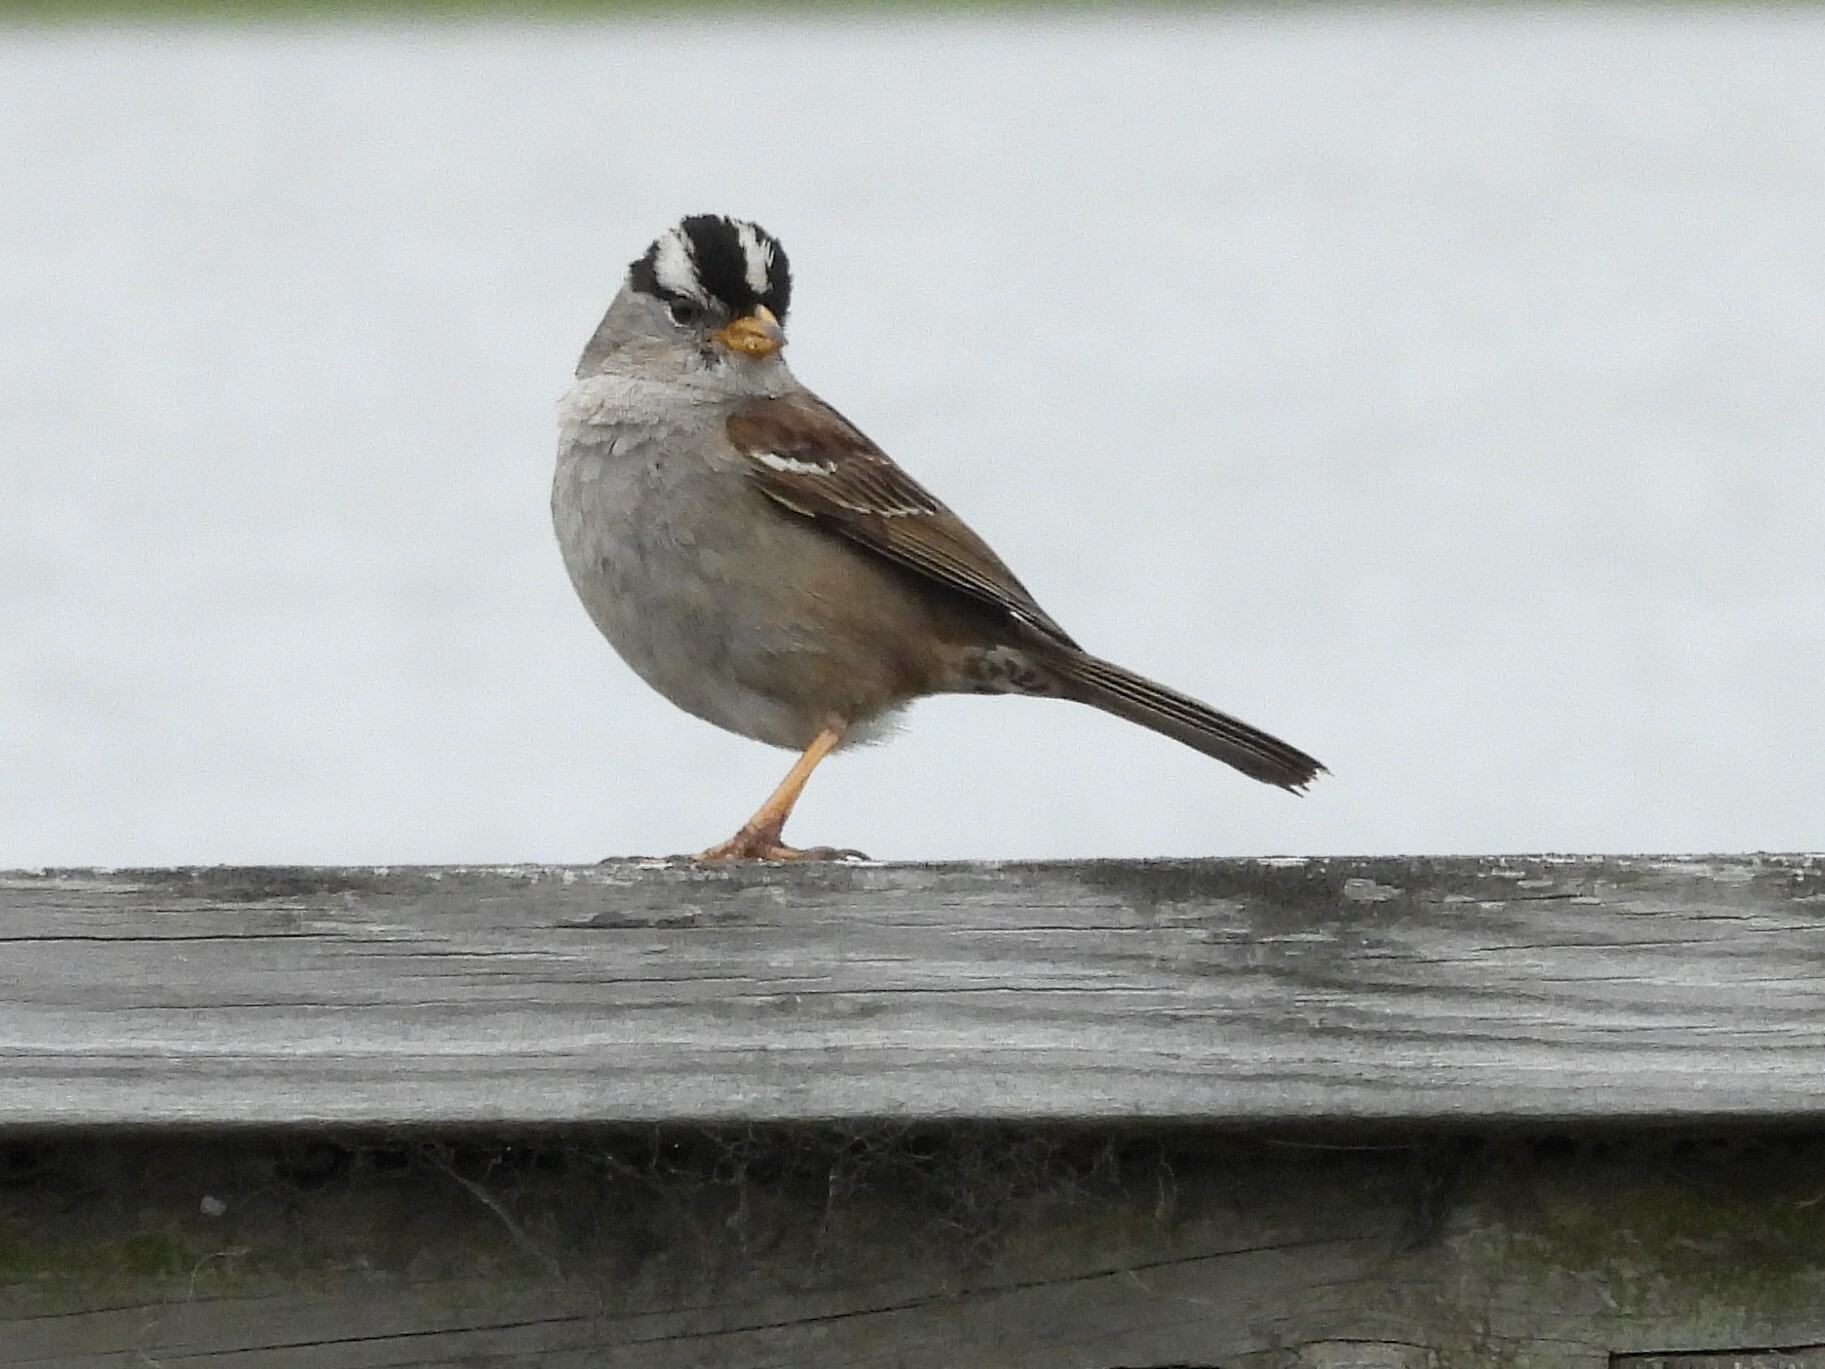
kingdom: Animalia
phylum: Chordata
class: Aves
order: Passeriformes
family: Passerellidae
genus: Zonotrichia
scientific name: Zonotrichia leucophrys
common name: White-crowned sparrow
